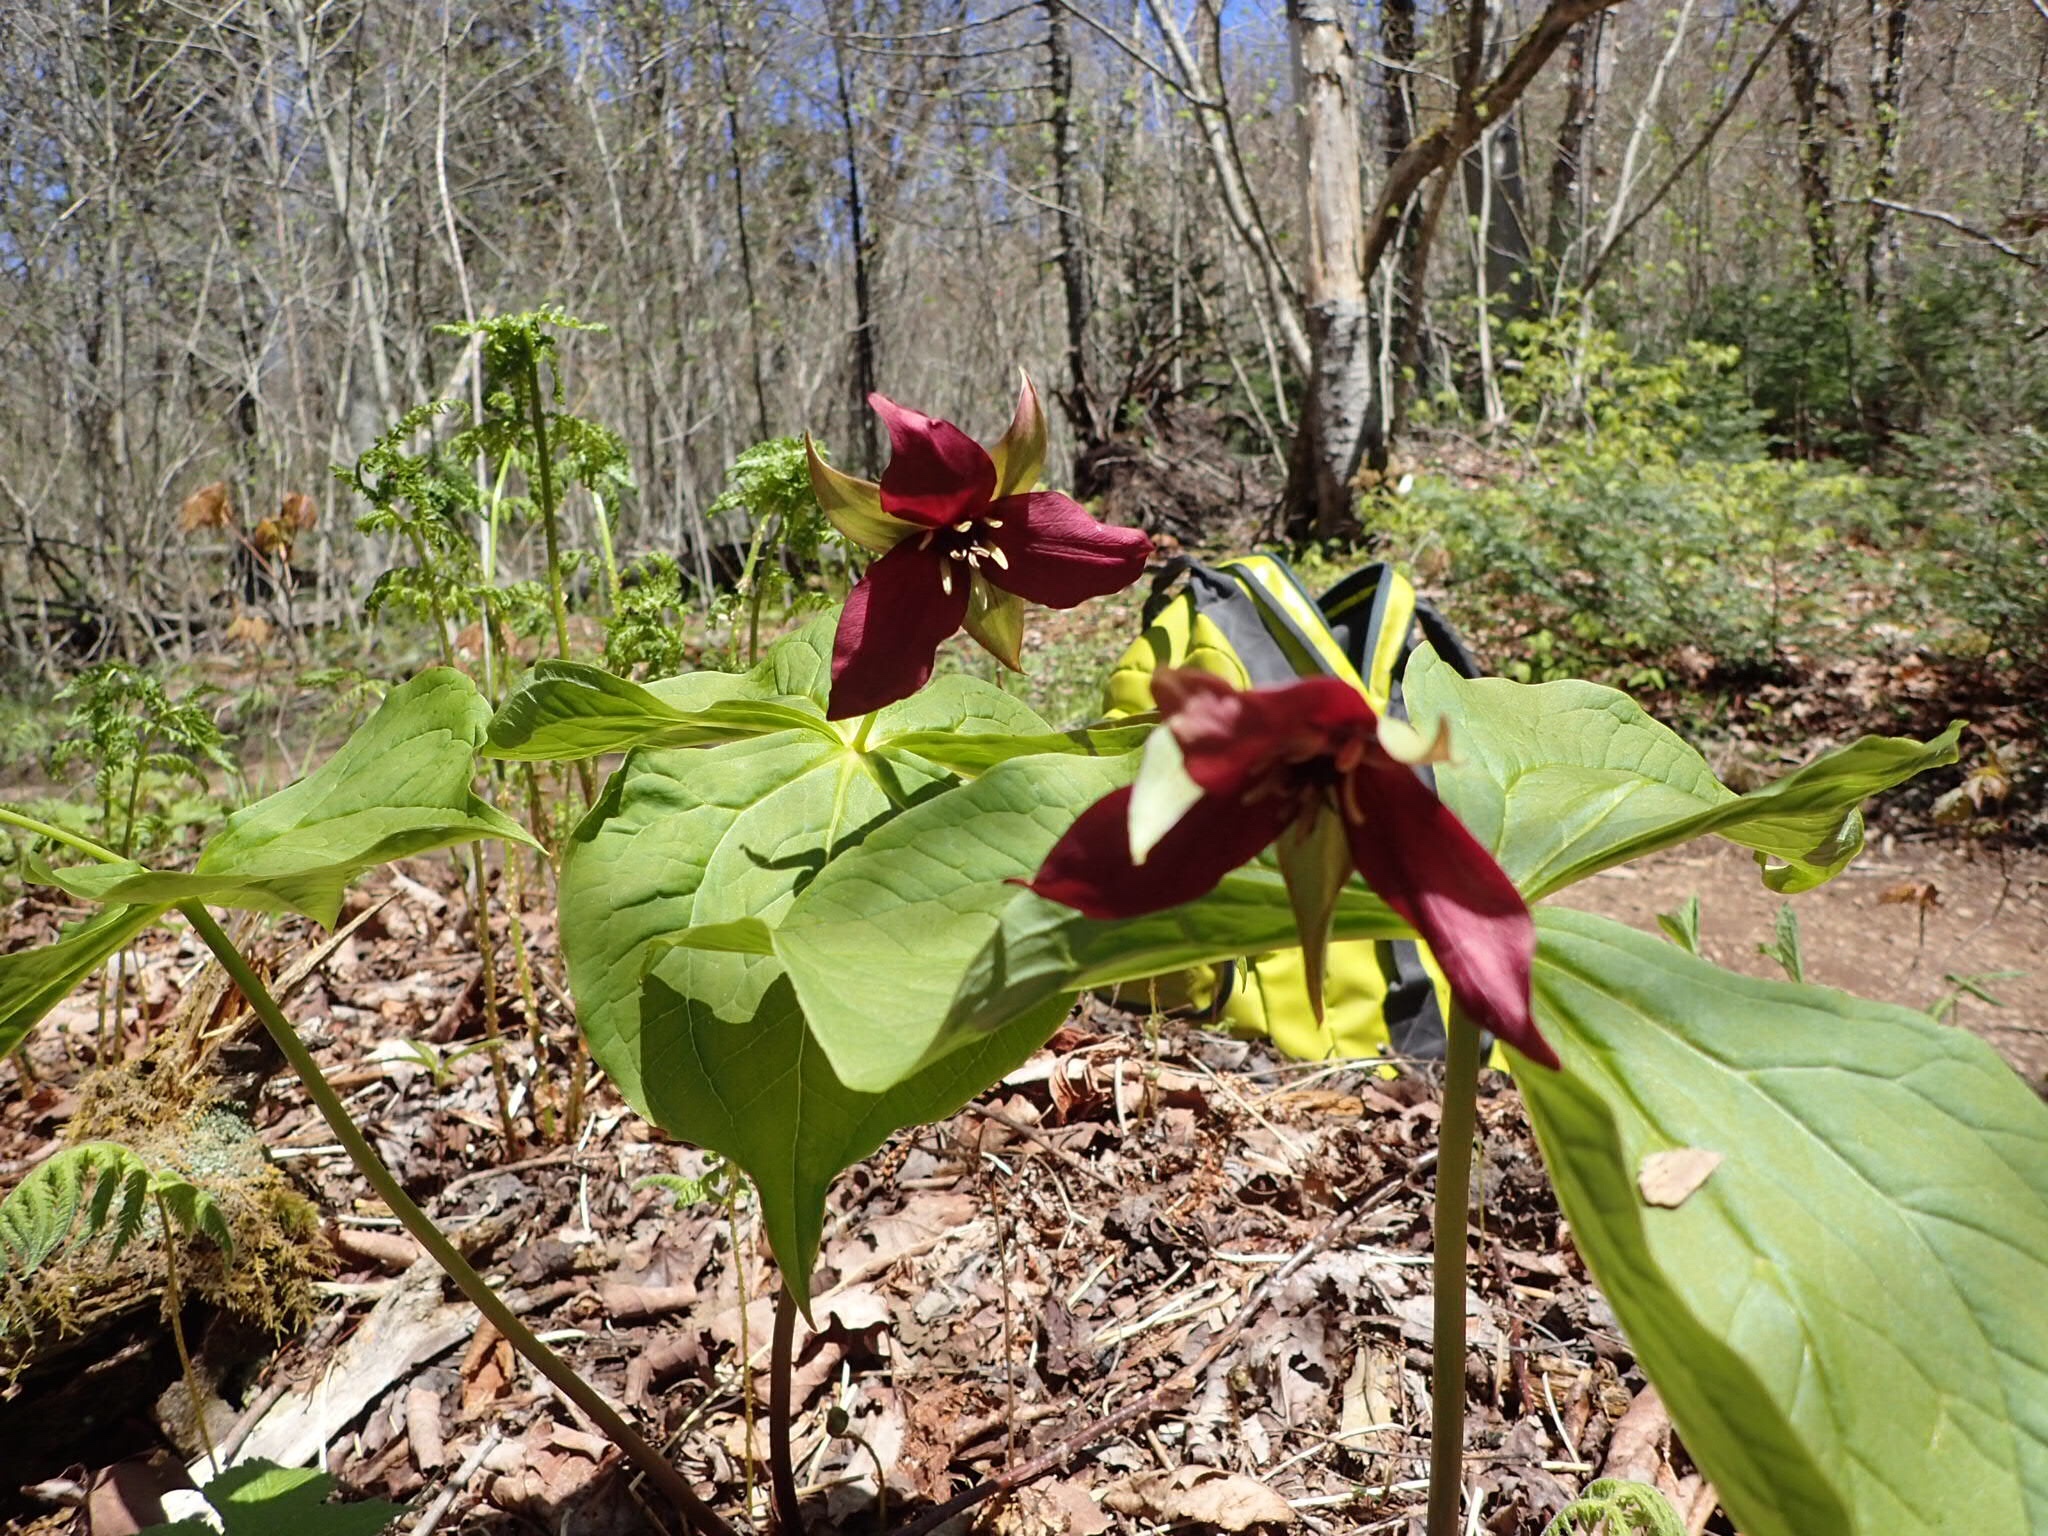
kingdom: Plantae
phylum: Tracheophyta
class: Liliopsida
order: Liliales
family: Melanthiaceae
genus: Trillium
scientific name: Trillium erectum
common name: Purple trillium
